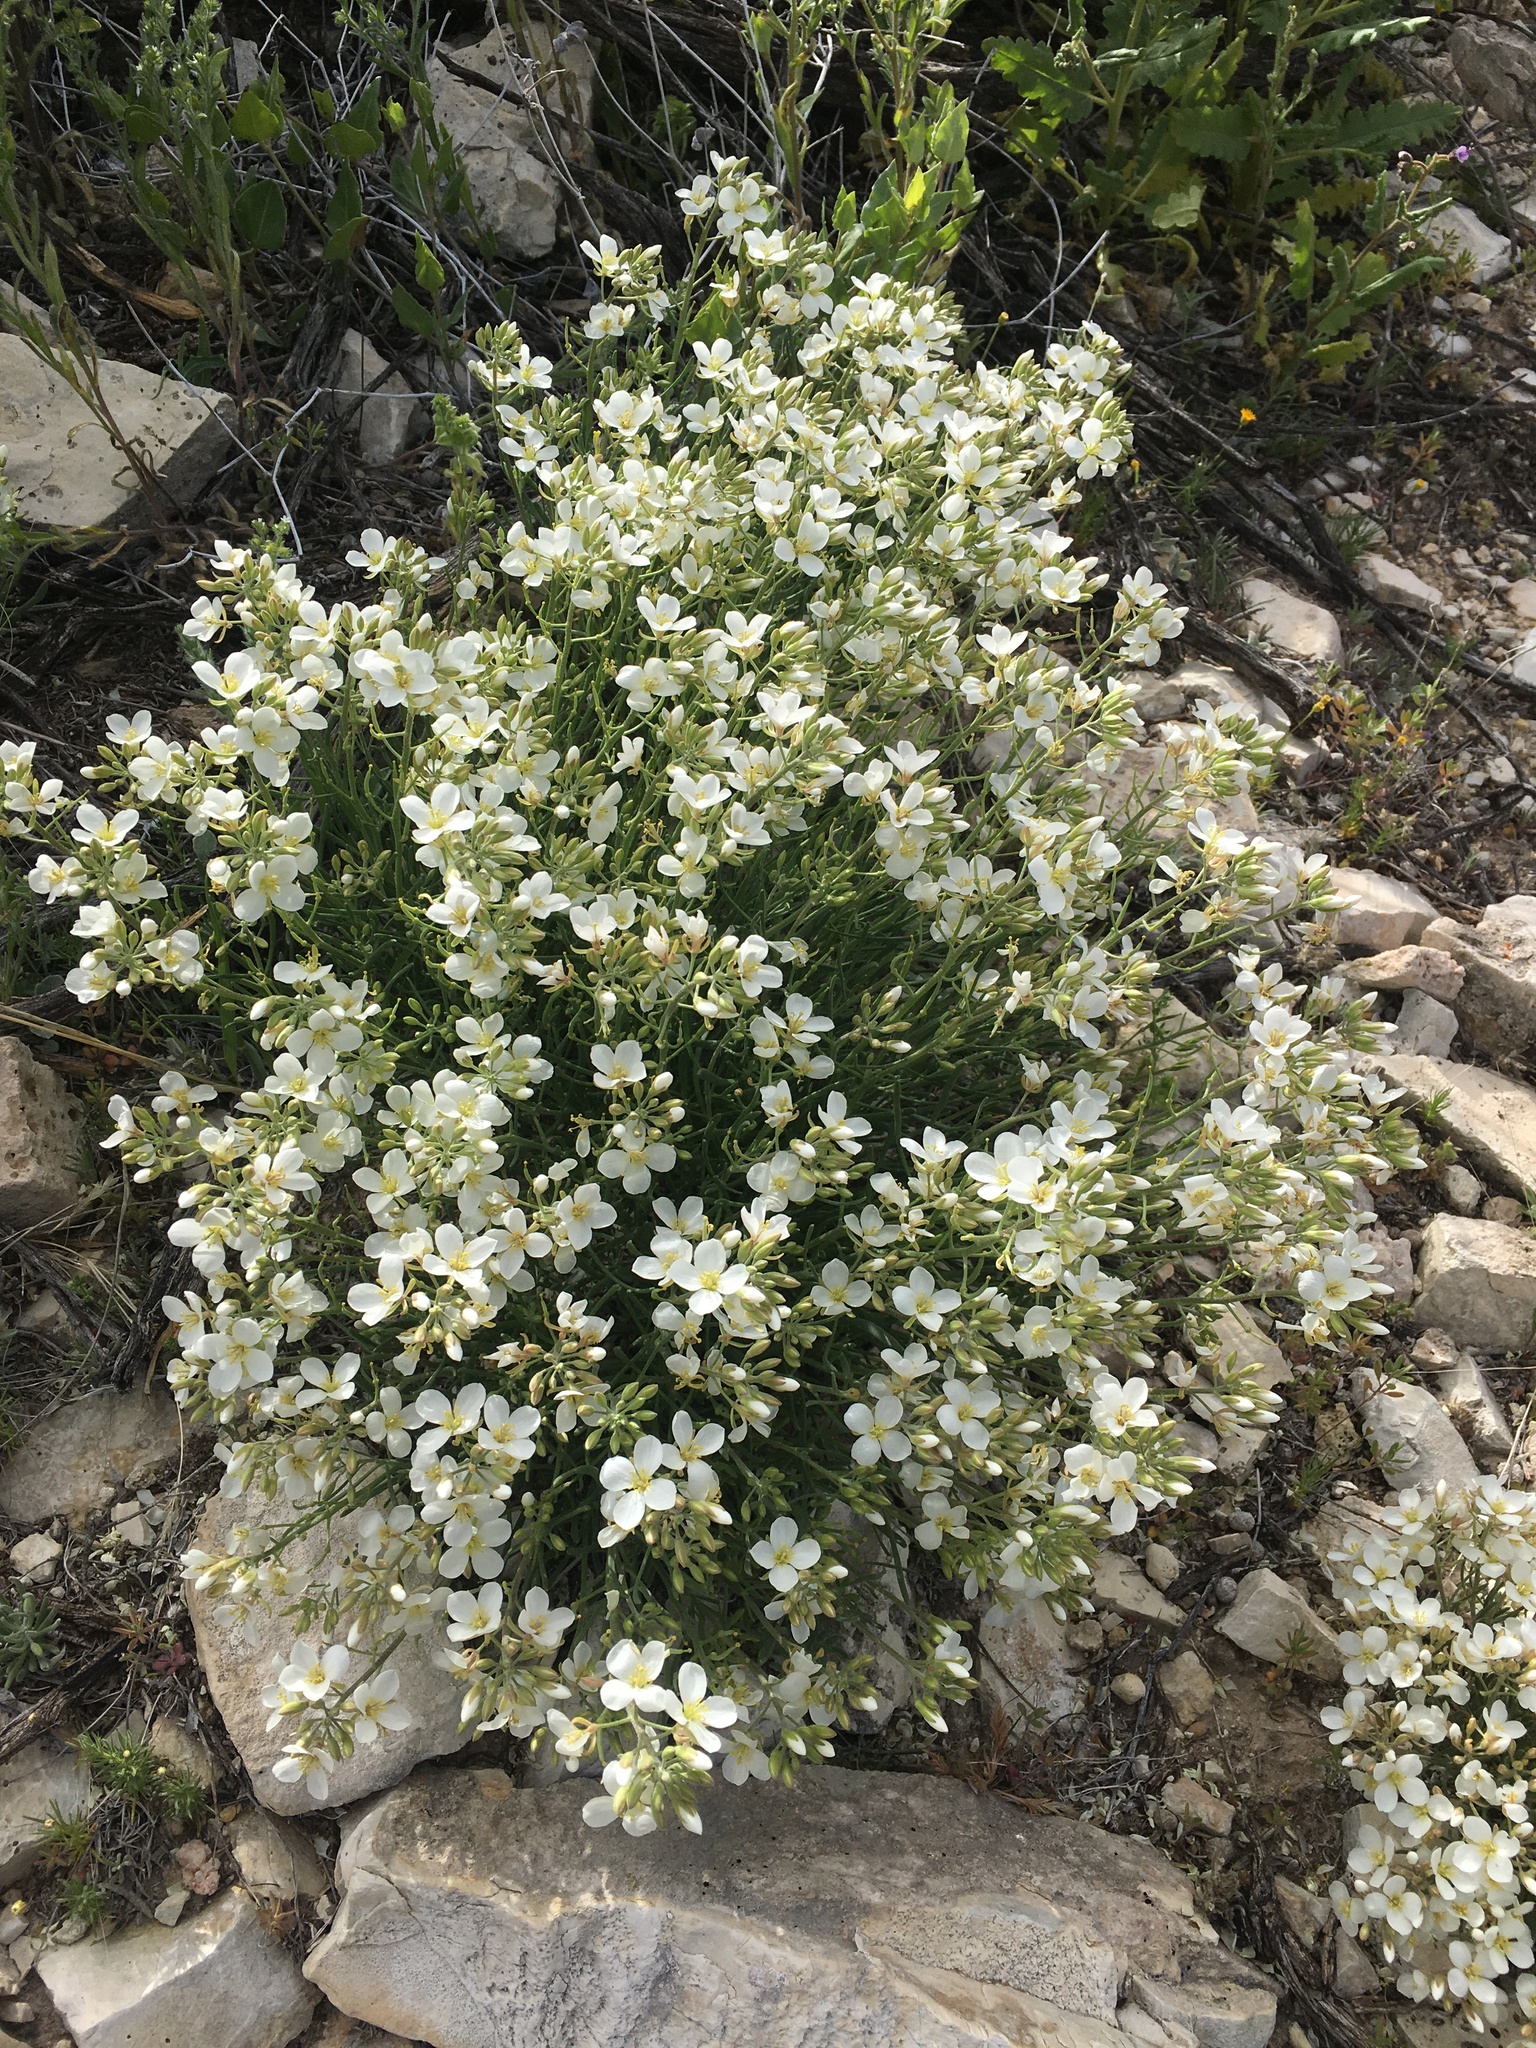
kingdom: Plantae
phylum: Tracheophyta
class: Magnoliopsida
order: Brassicales
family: Brassicaceae
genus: Nerisyrenia
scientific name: Nerisyrenia linearifolia
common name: White sands fan mustard
